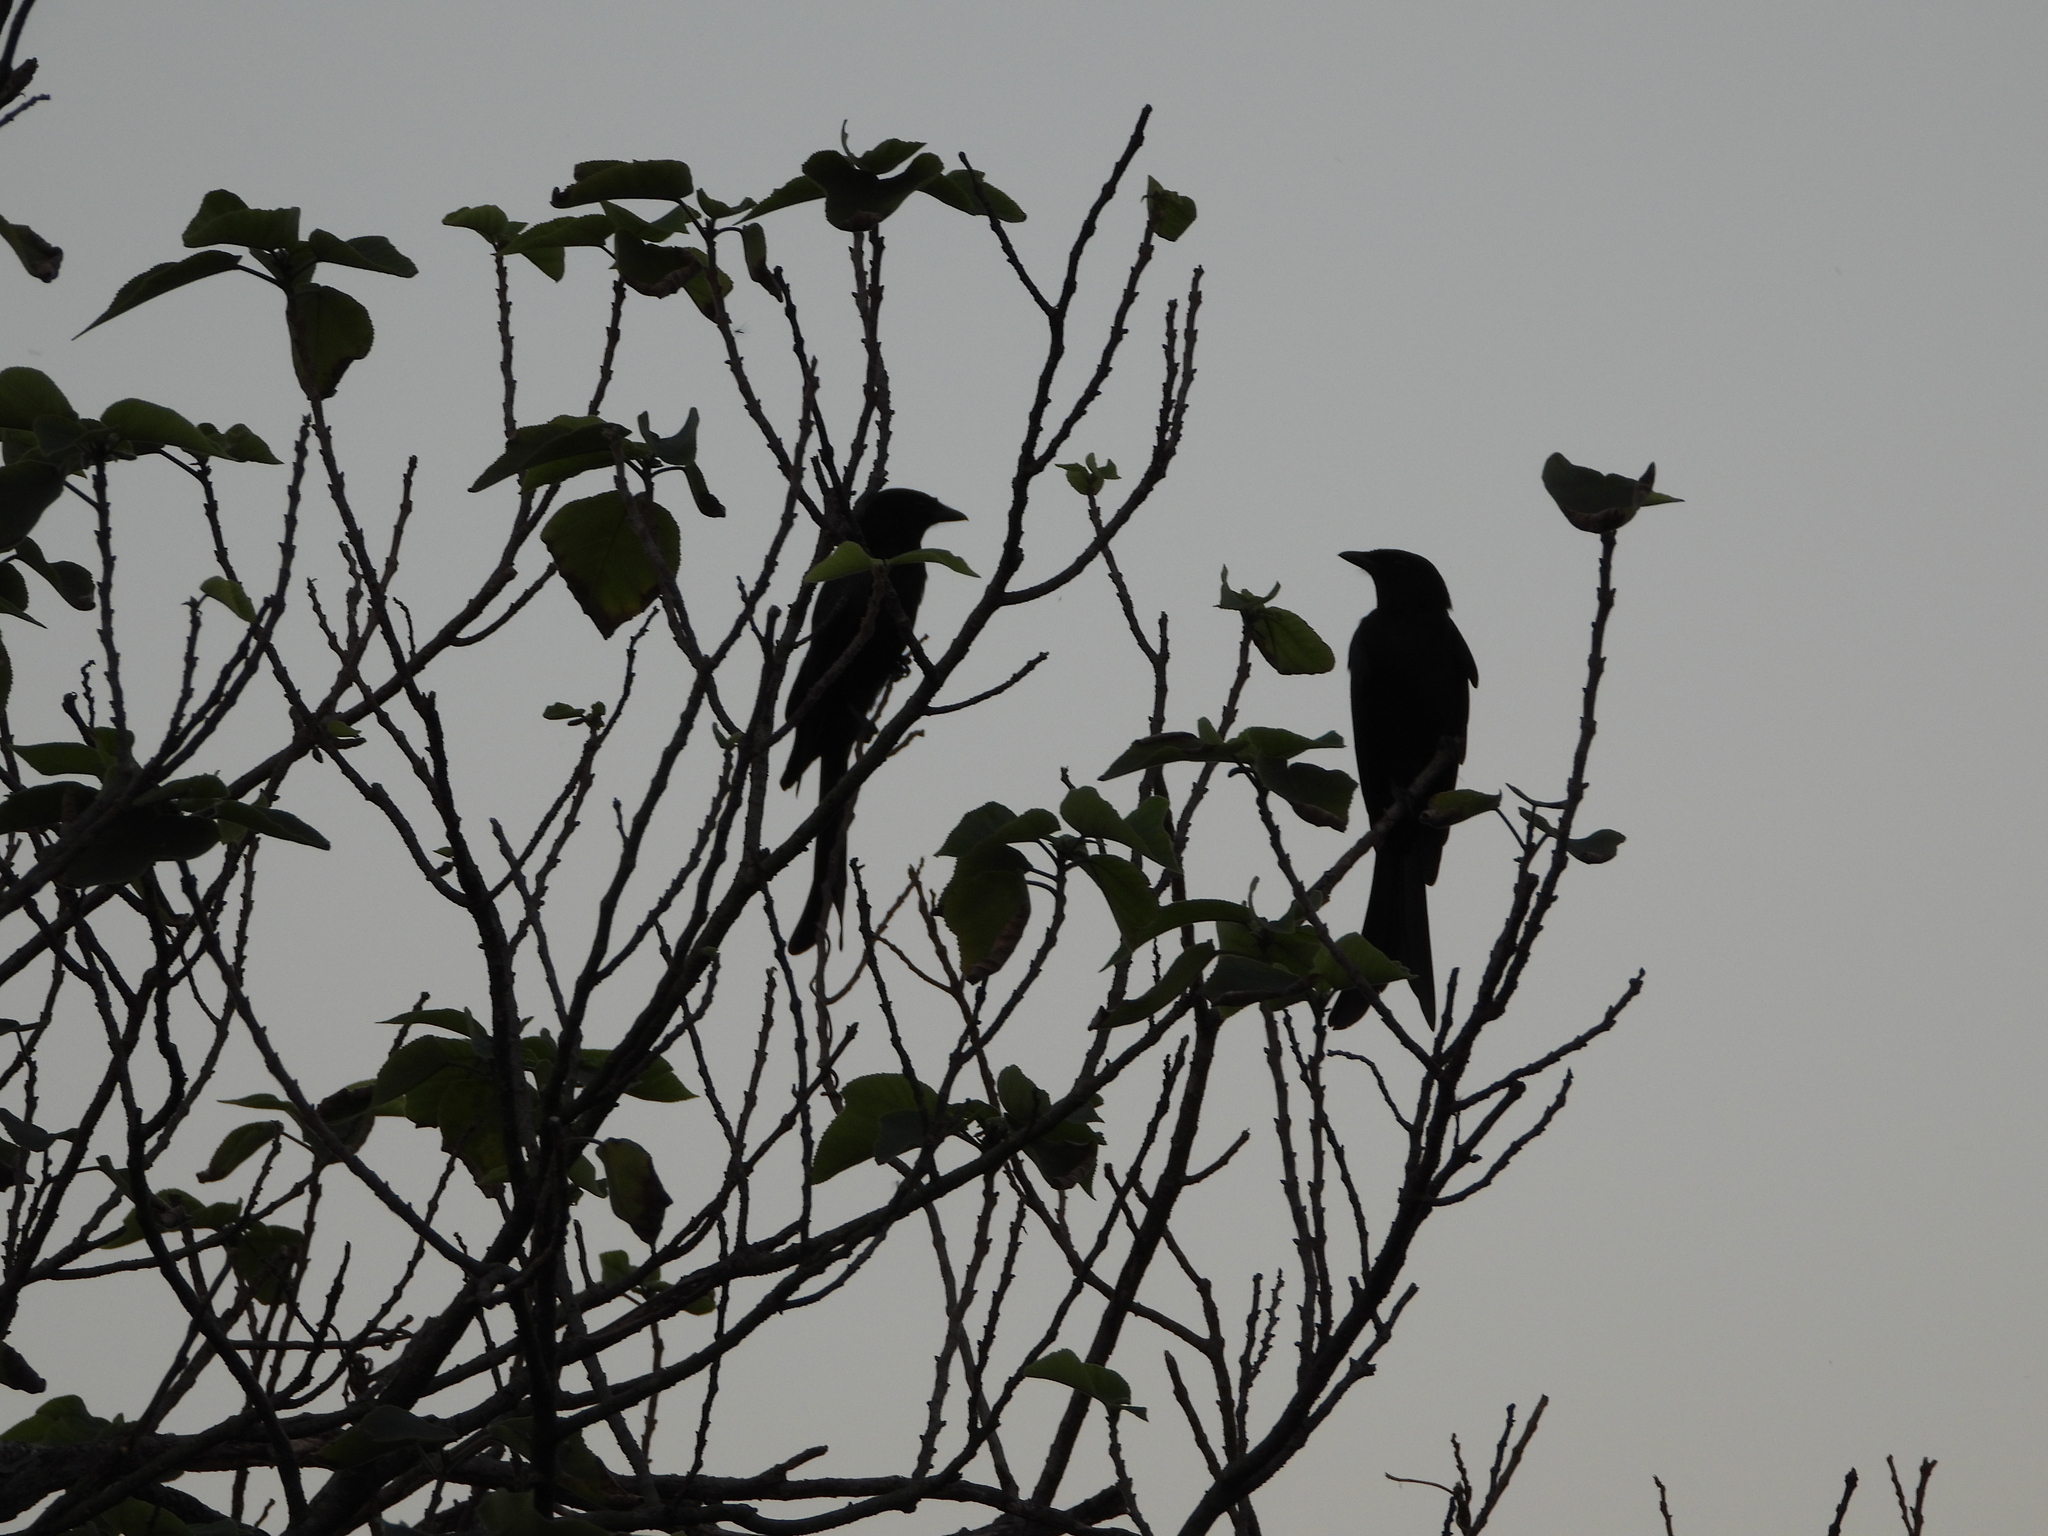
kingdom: Animalia
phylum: Chordata
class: Aves
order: Passeriformes
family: Dicruridae
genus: Dicrurus
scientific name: Dicrurus macrocercus
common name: Black drongo
